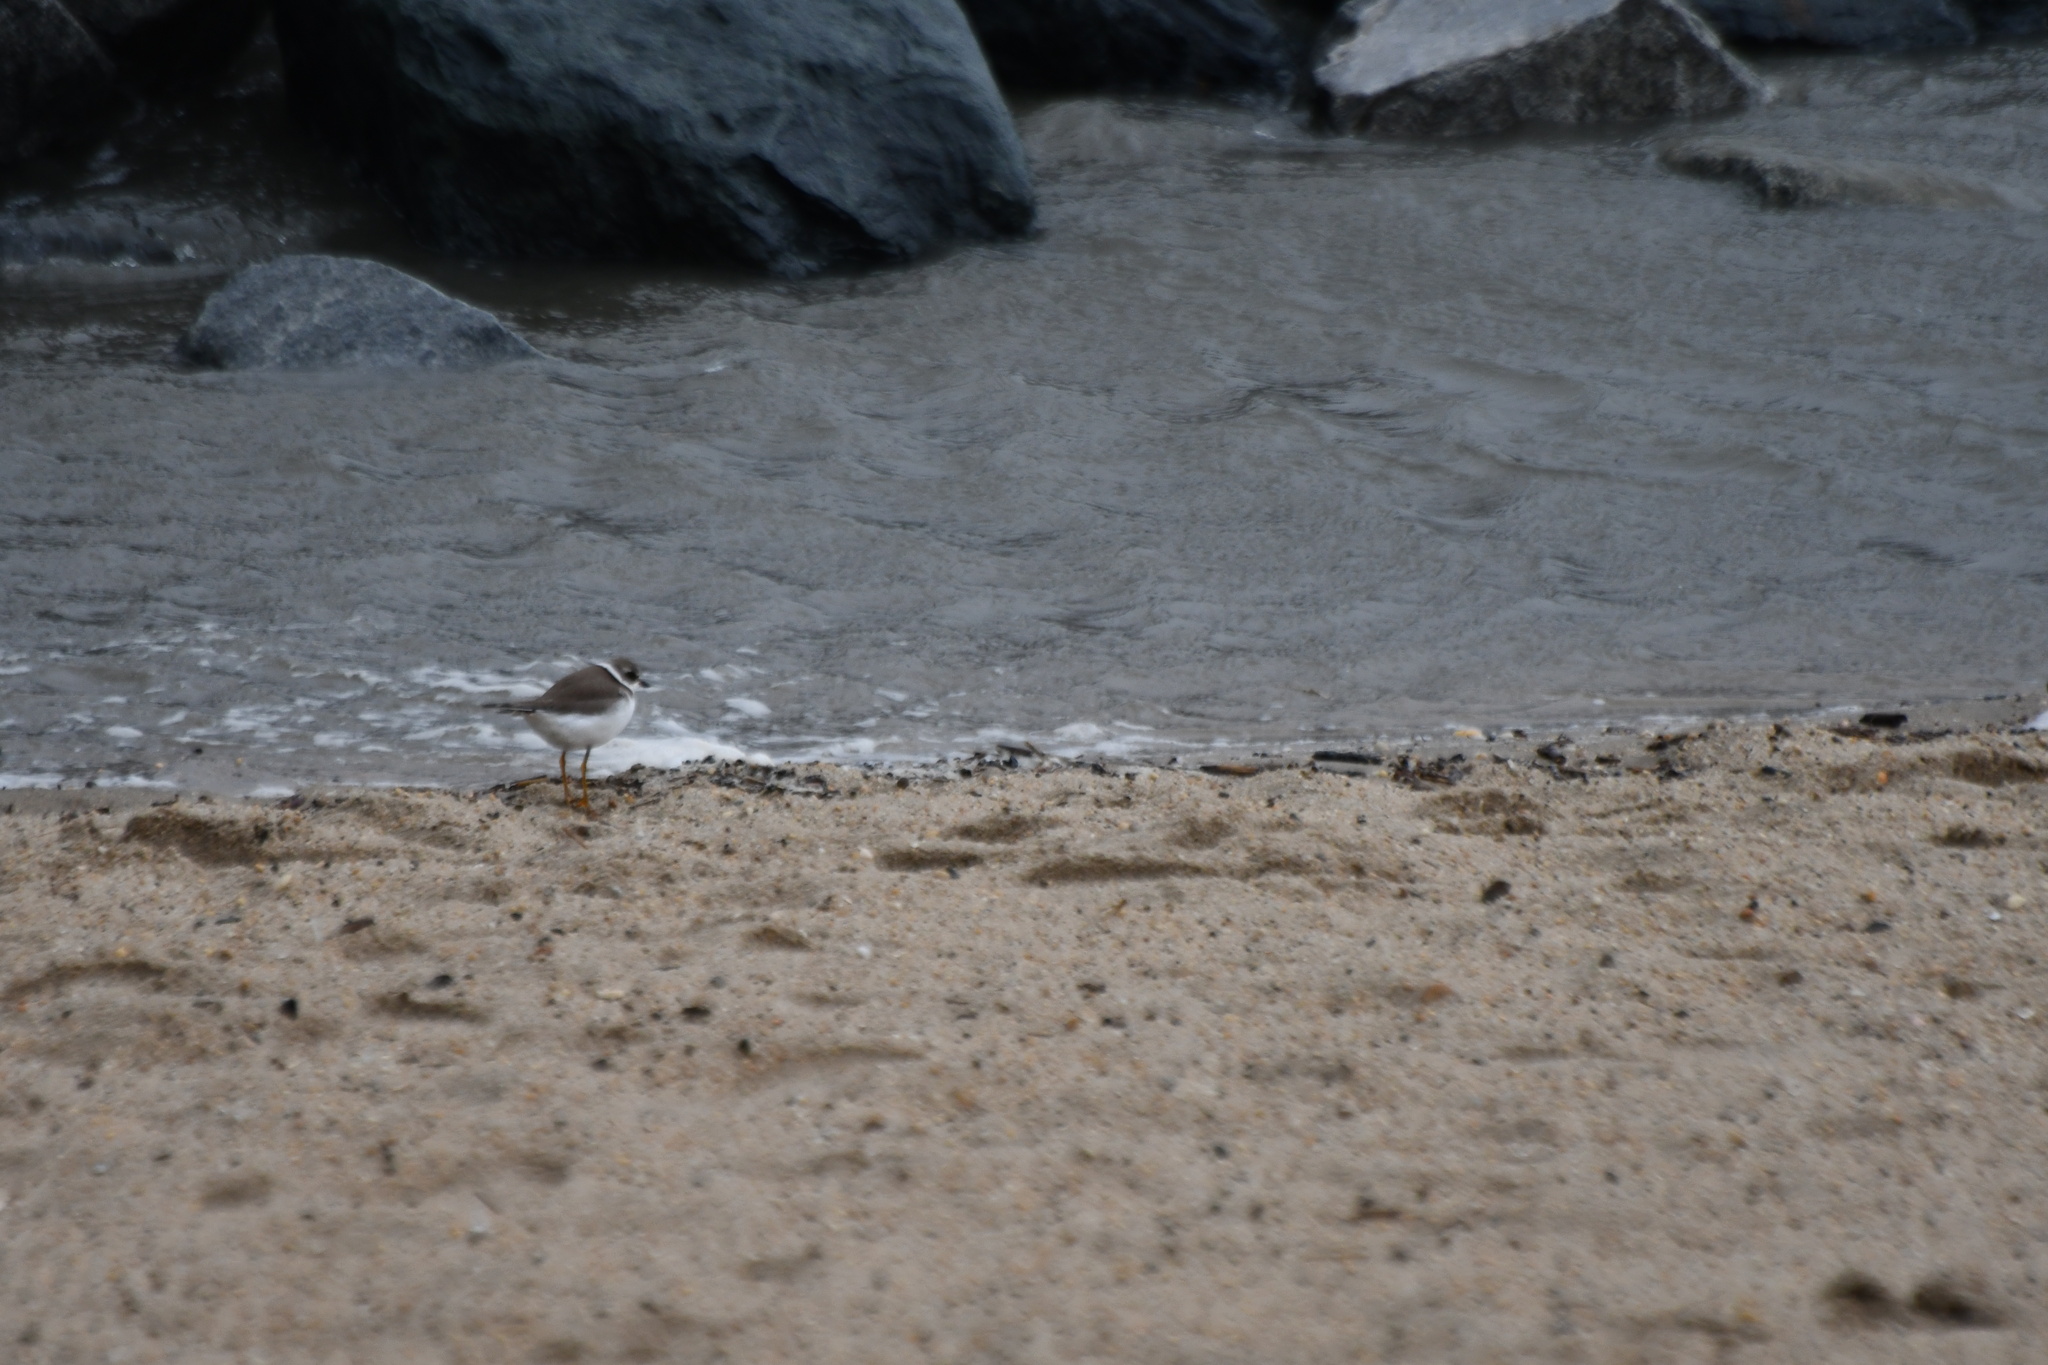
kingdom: Animalia
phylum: Chordata
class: Aves
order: Charadriiformes
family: Charadriidae
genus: Charadrius
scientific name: Charadrius semipalmatus
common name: Semipalmated plover
